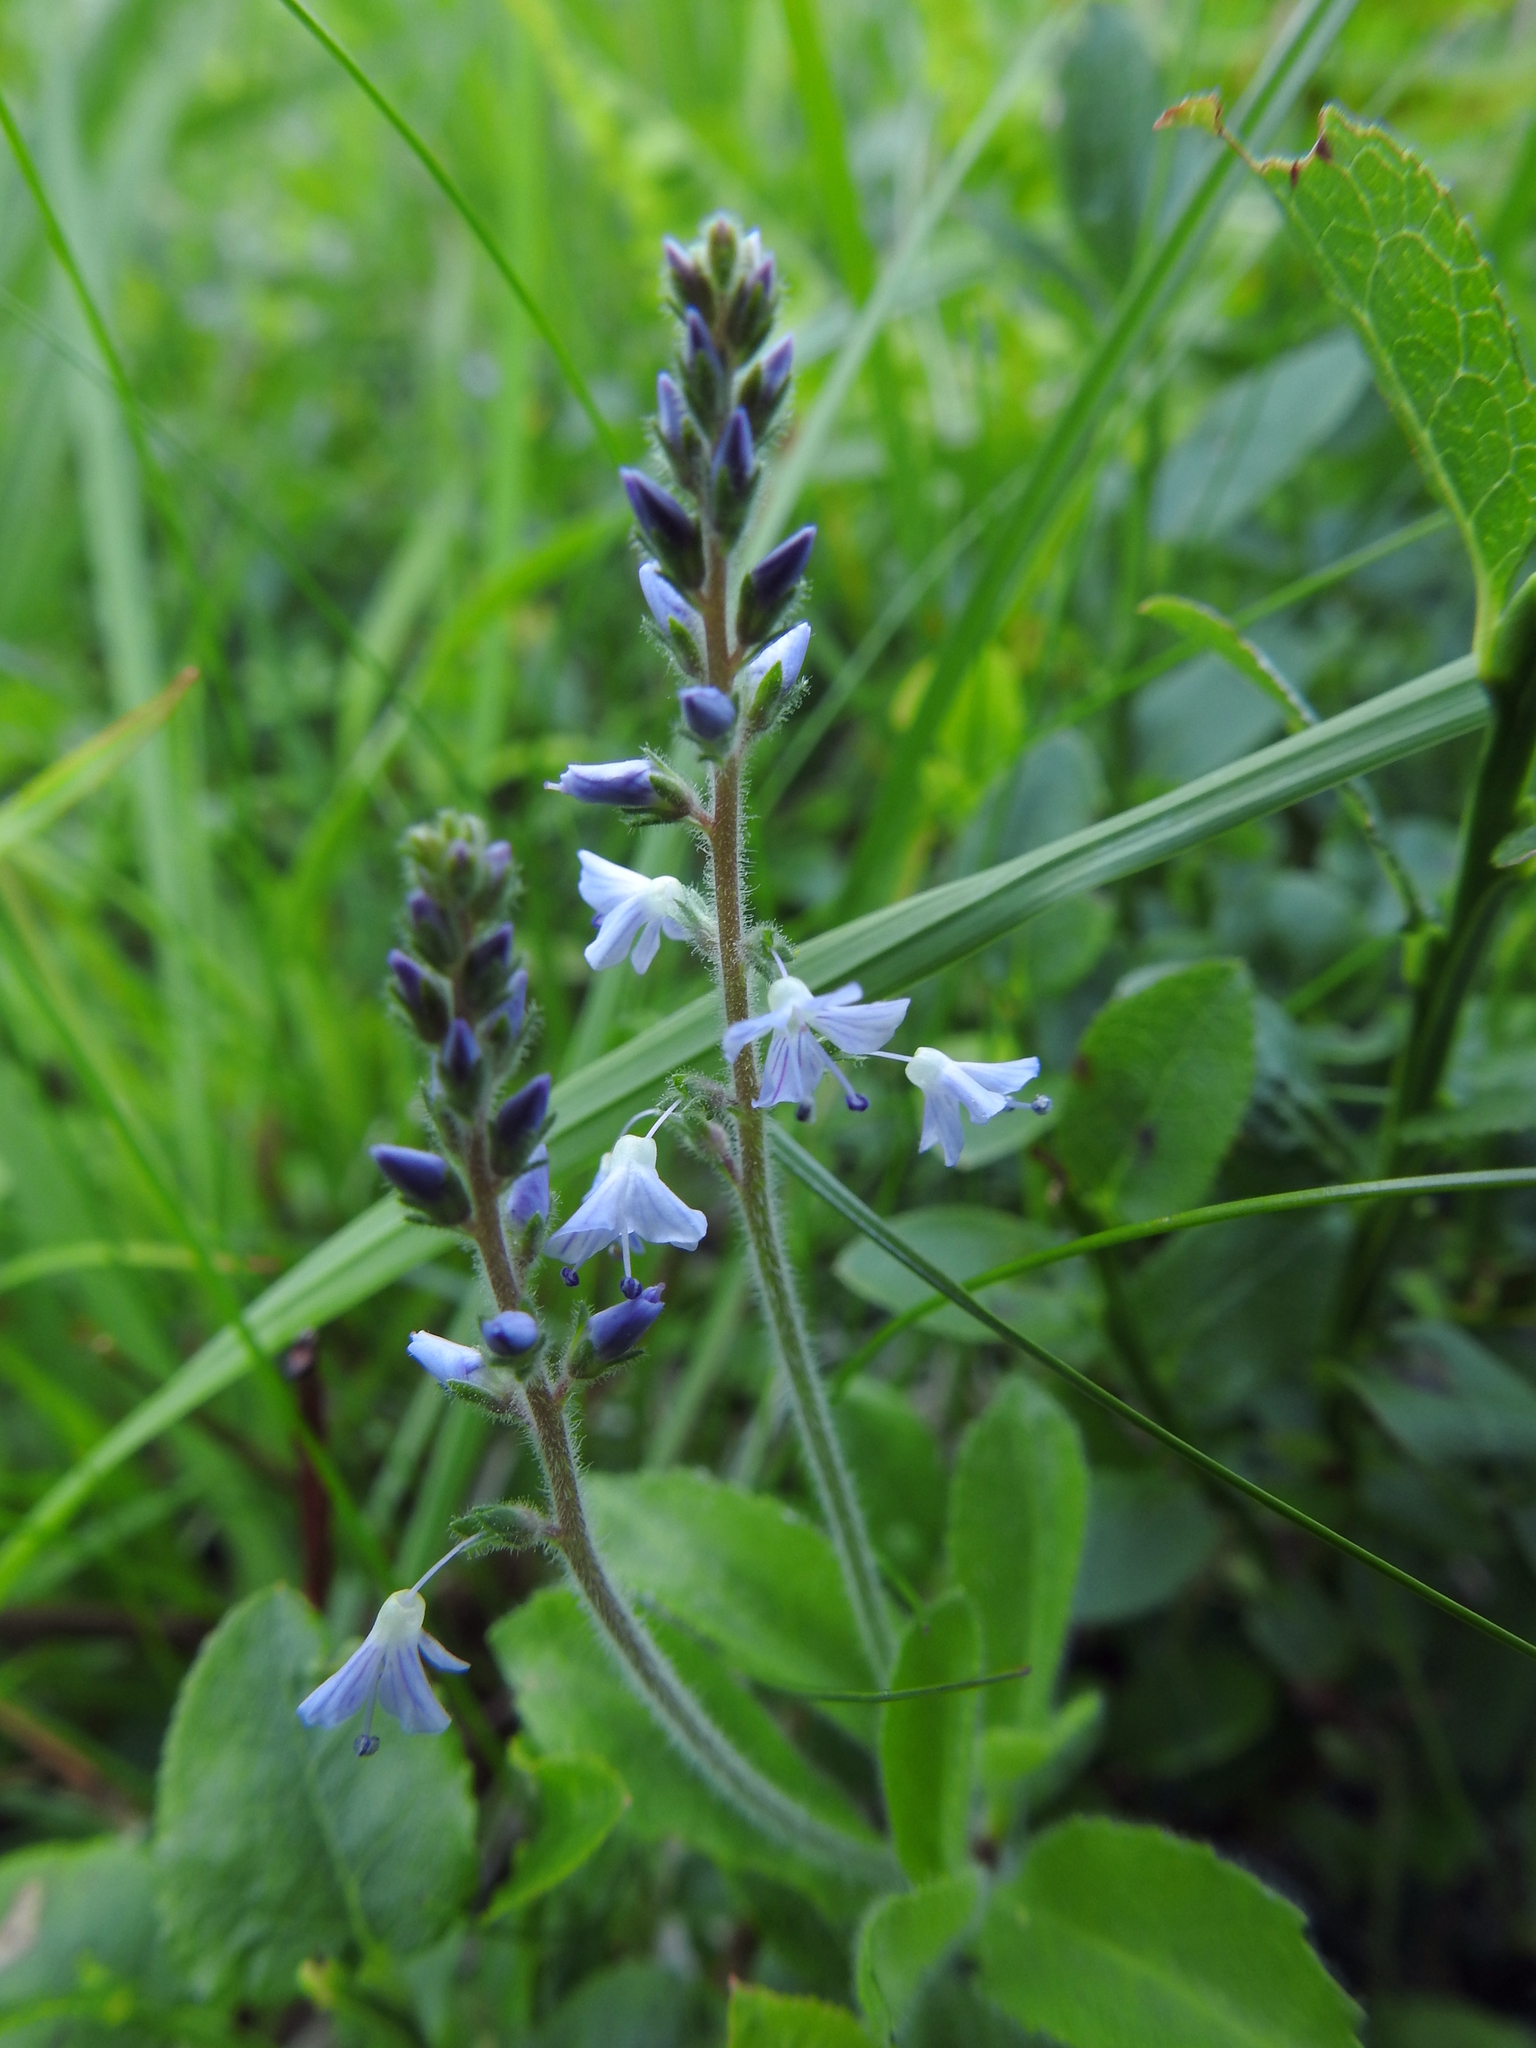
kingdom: Plantae
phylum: Tracheophyta
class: Magnoliopsida
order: Lamiales
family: Plantaginaceae
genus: Veronica
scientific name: Veronica officinalis
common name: Common speedwell
